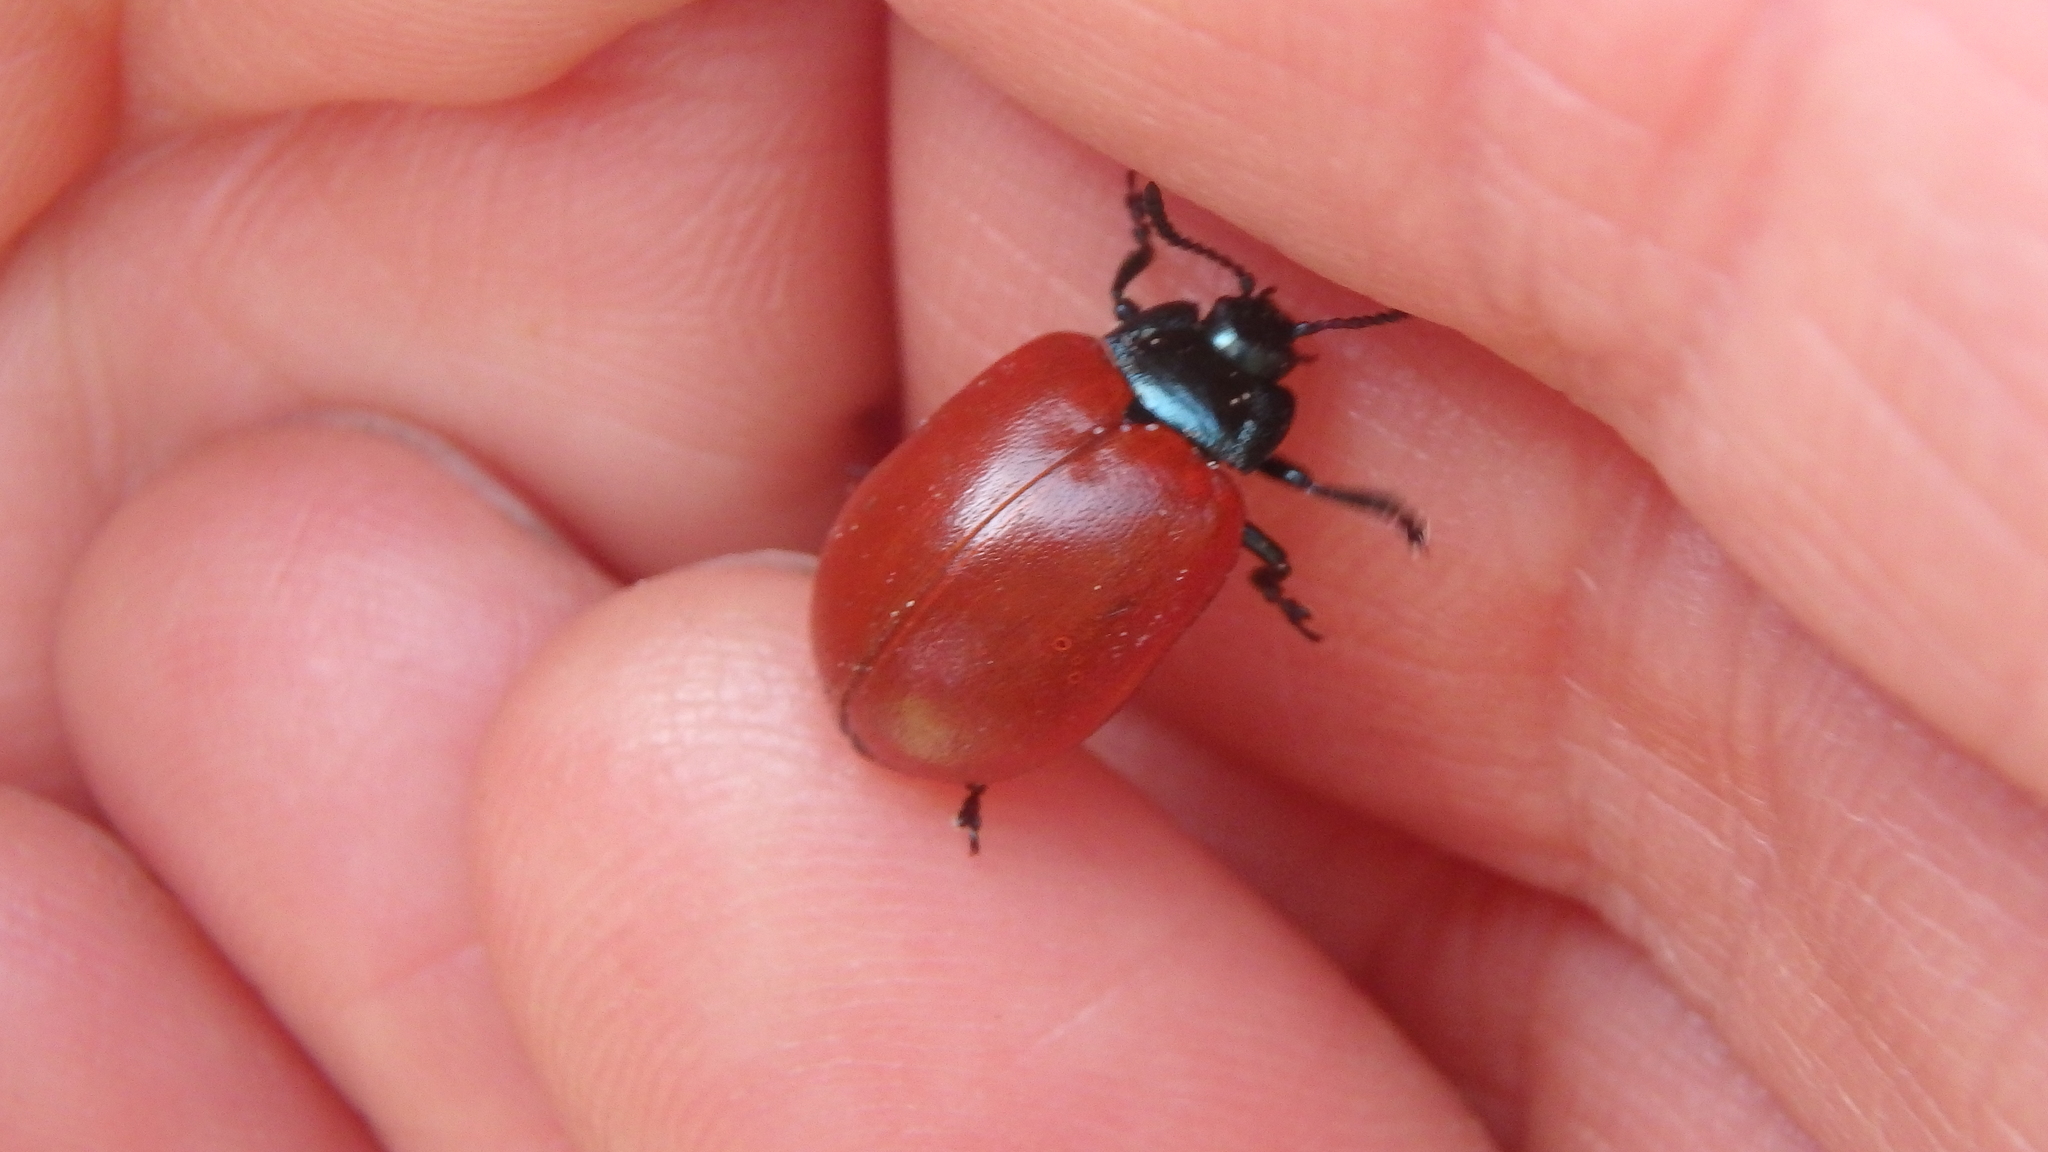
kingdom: Animalia
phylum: Arthropoda
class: Insecta
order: Coleoptera
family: Chrysomelidae
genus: Chrysomela
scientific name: Chrysomela populi
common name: Red poplar leaf beetle
